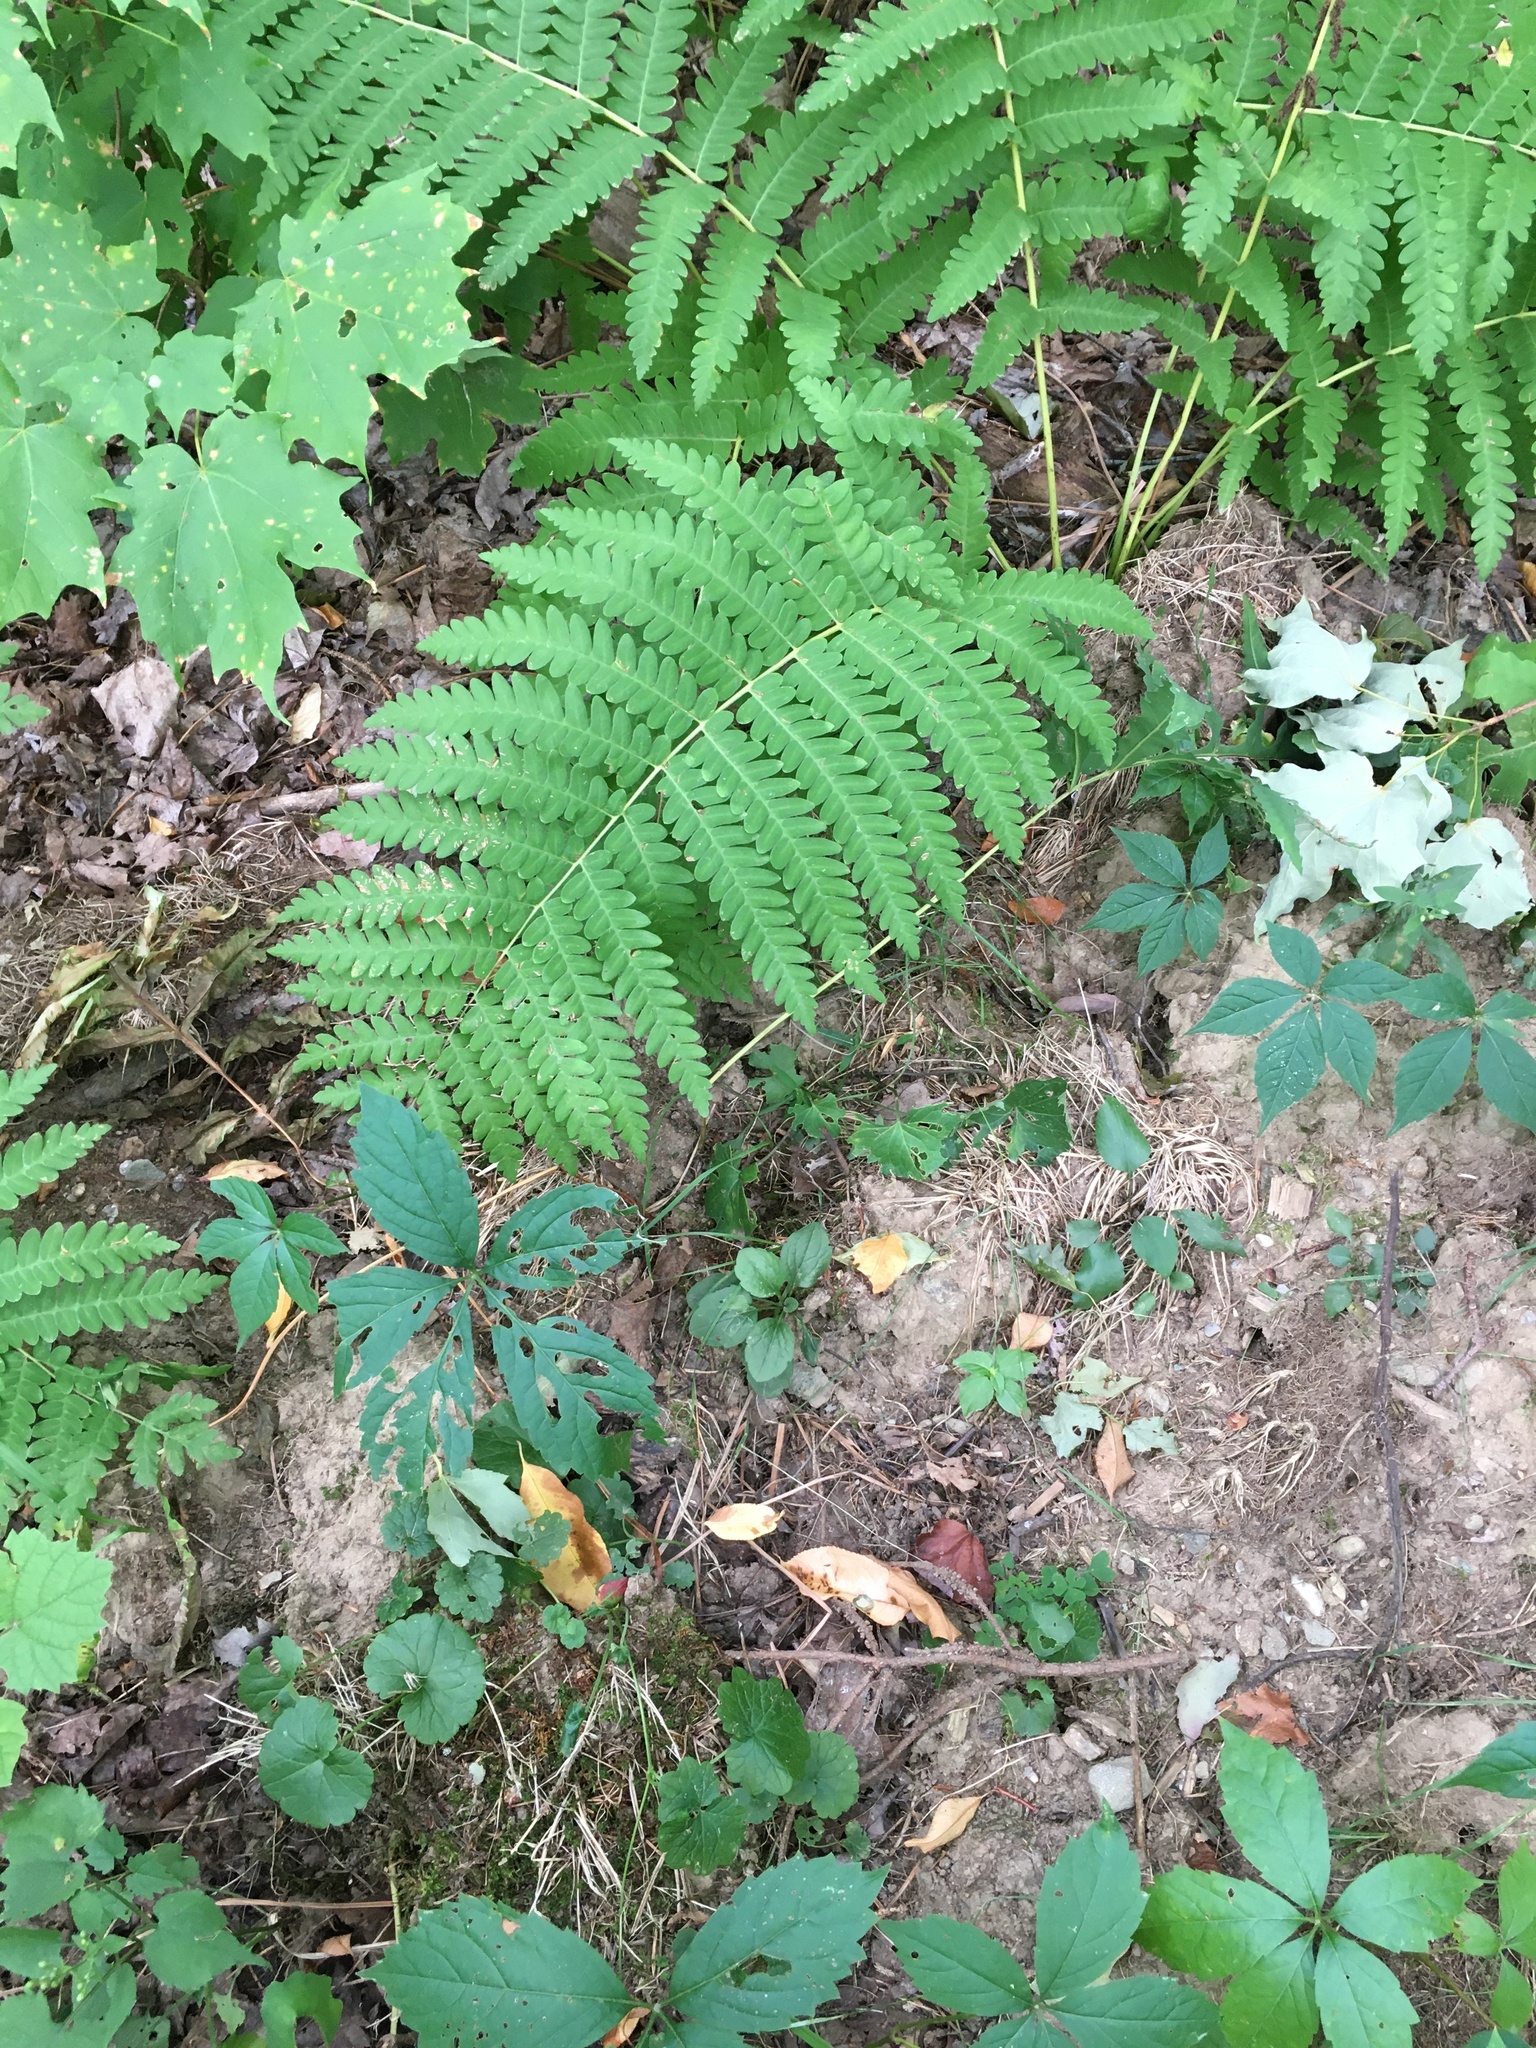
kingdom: Plantae
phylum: Tracheophyta
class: Polypodiopsida
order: Osmundales
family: Osmundaceae
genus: Claytosmunda
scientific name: Claytosmunda claytoniana
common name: Clayton's fern
